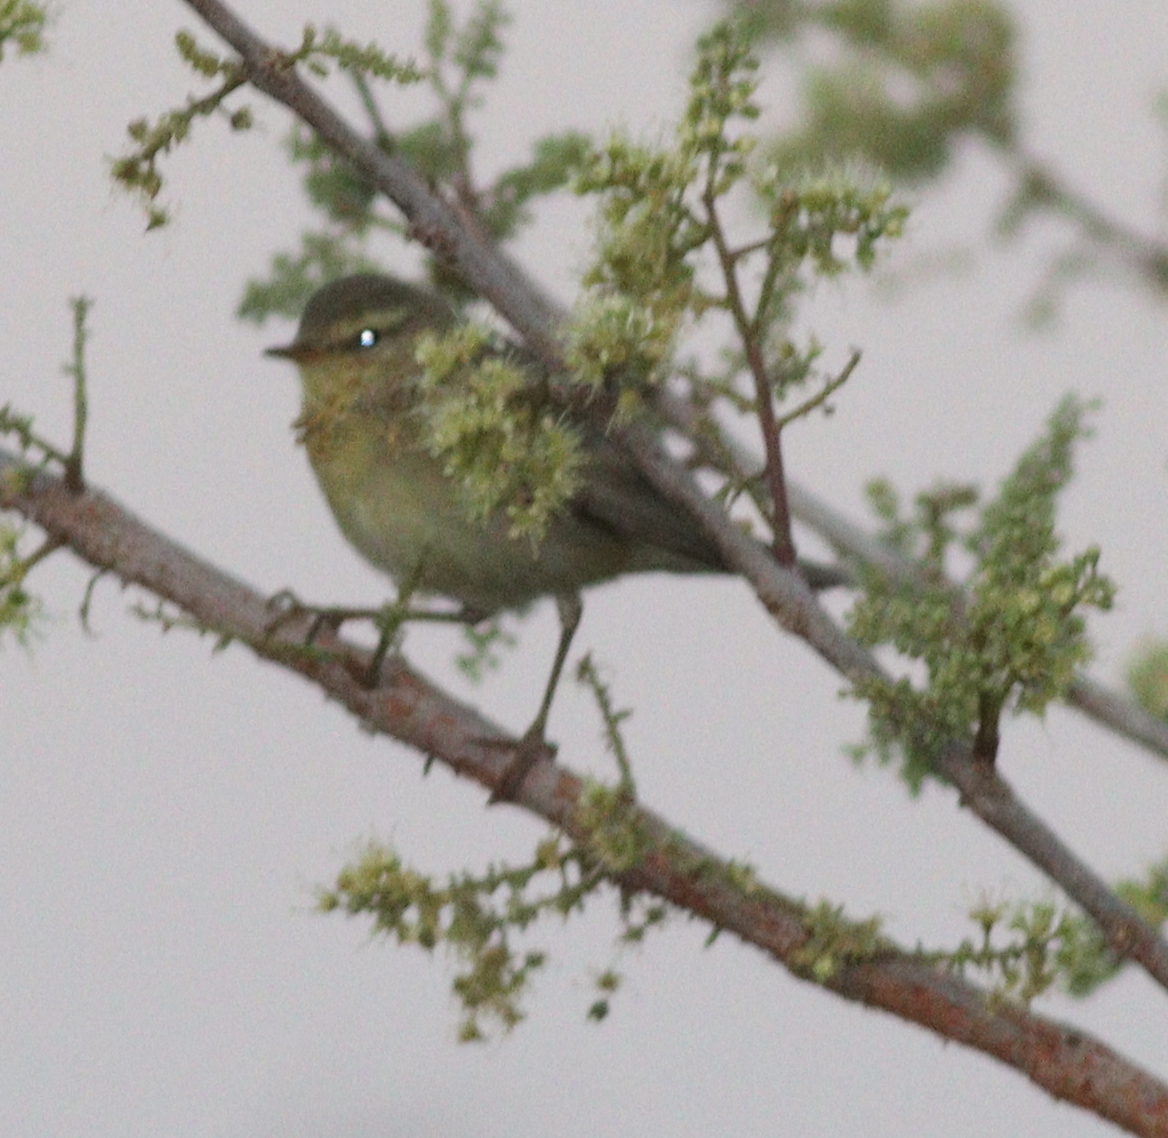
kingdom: Animalia
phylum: Chordata
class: Aves
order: Passeriformes
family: Phylloscopidae
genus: Phylloscopus
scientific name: Phylloscopus trochilus
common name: Willow warbler
